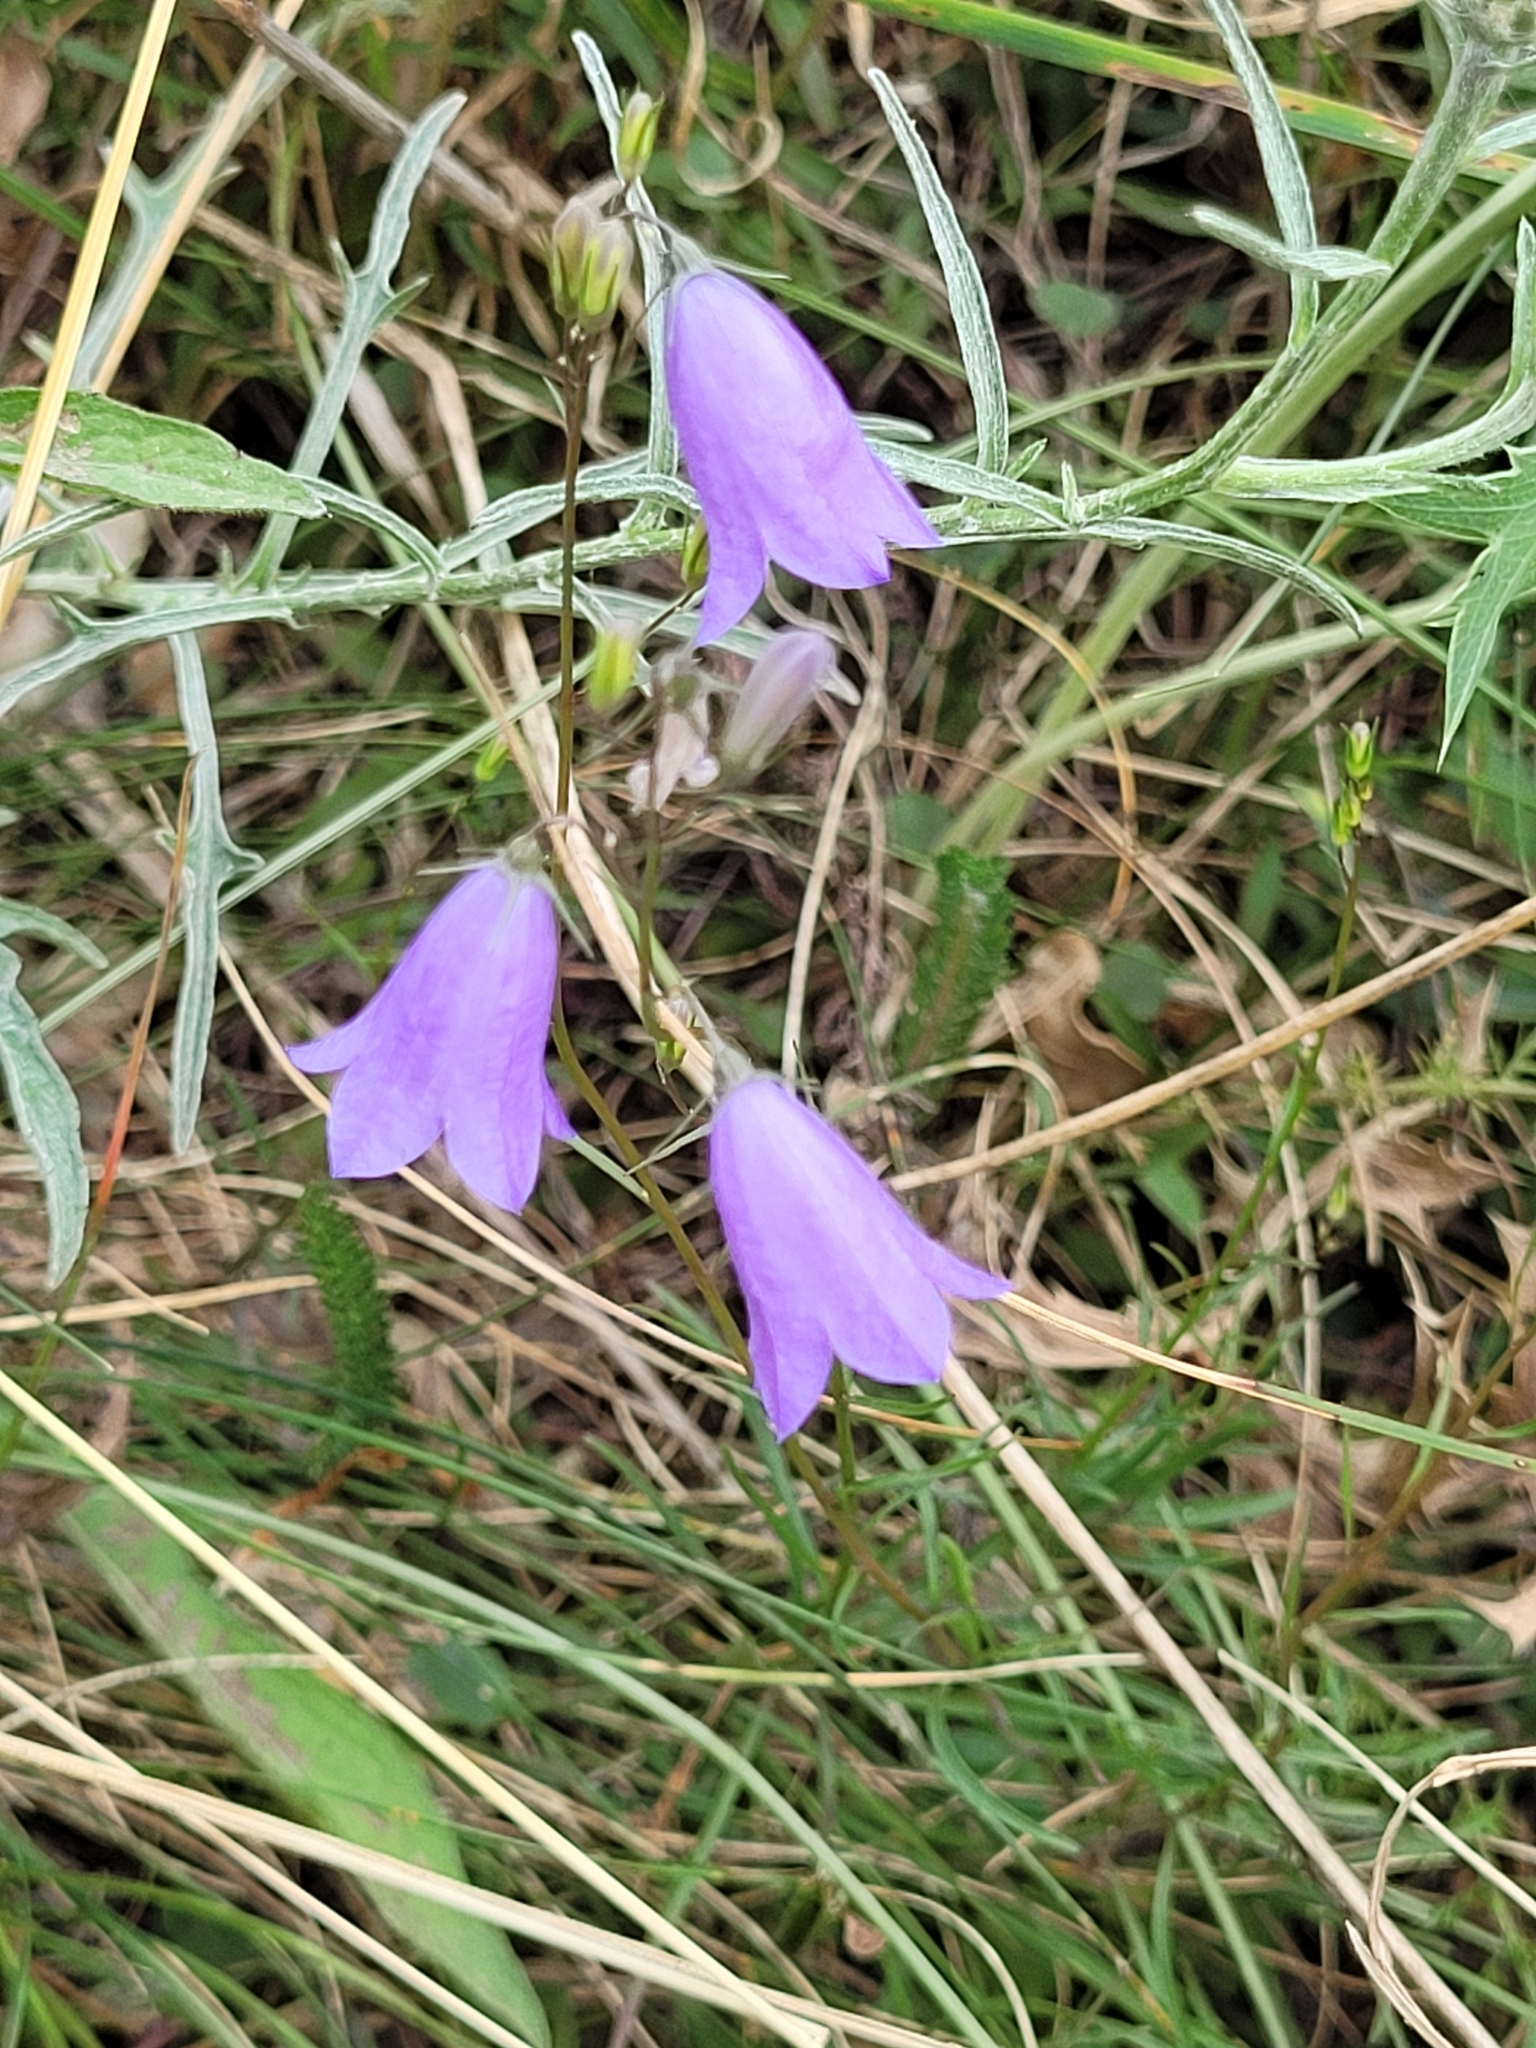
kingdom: Plantae
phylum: Tracheophyta
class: Magnoliopsida
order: Asterales
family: Campanulaceae
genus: Campanula
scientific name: Campanula rotundifolia
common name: Harebell
